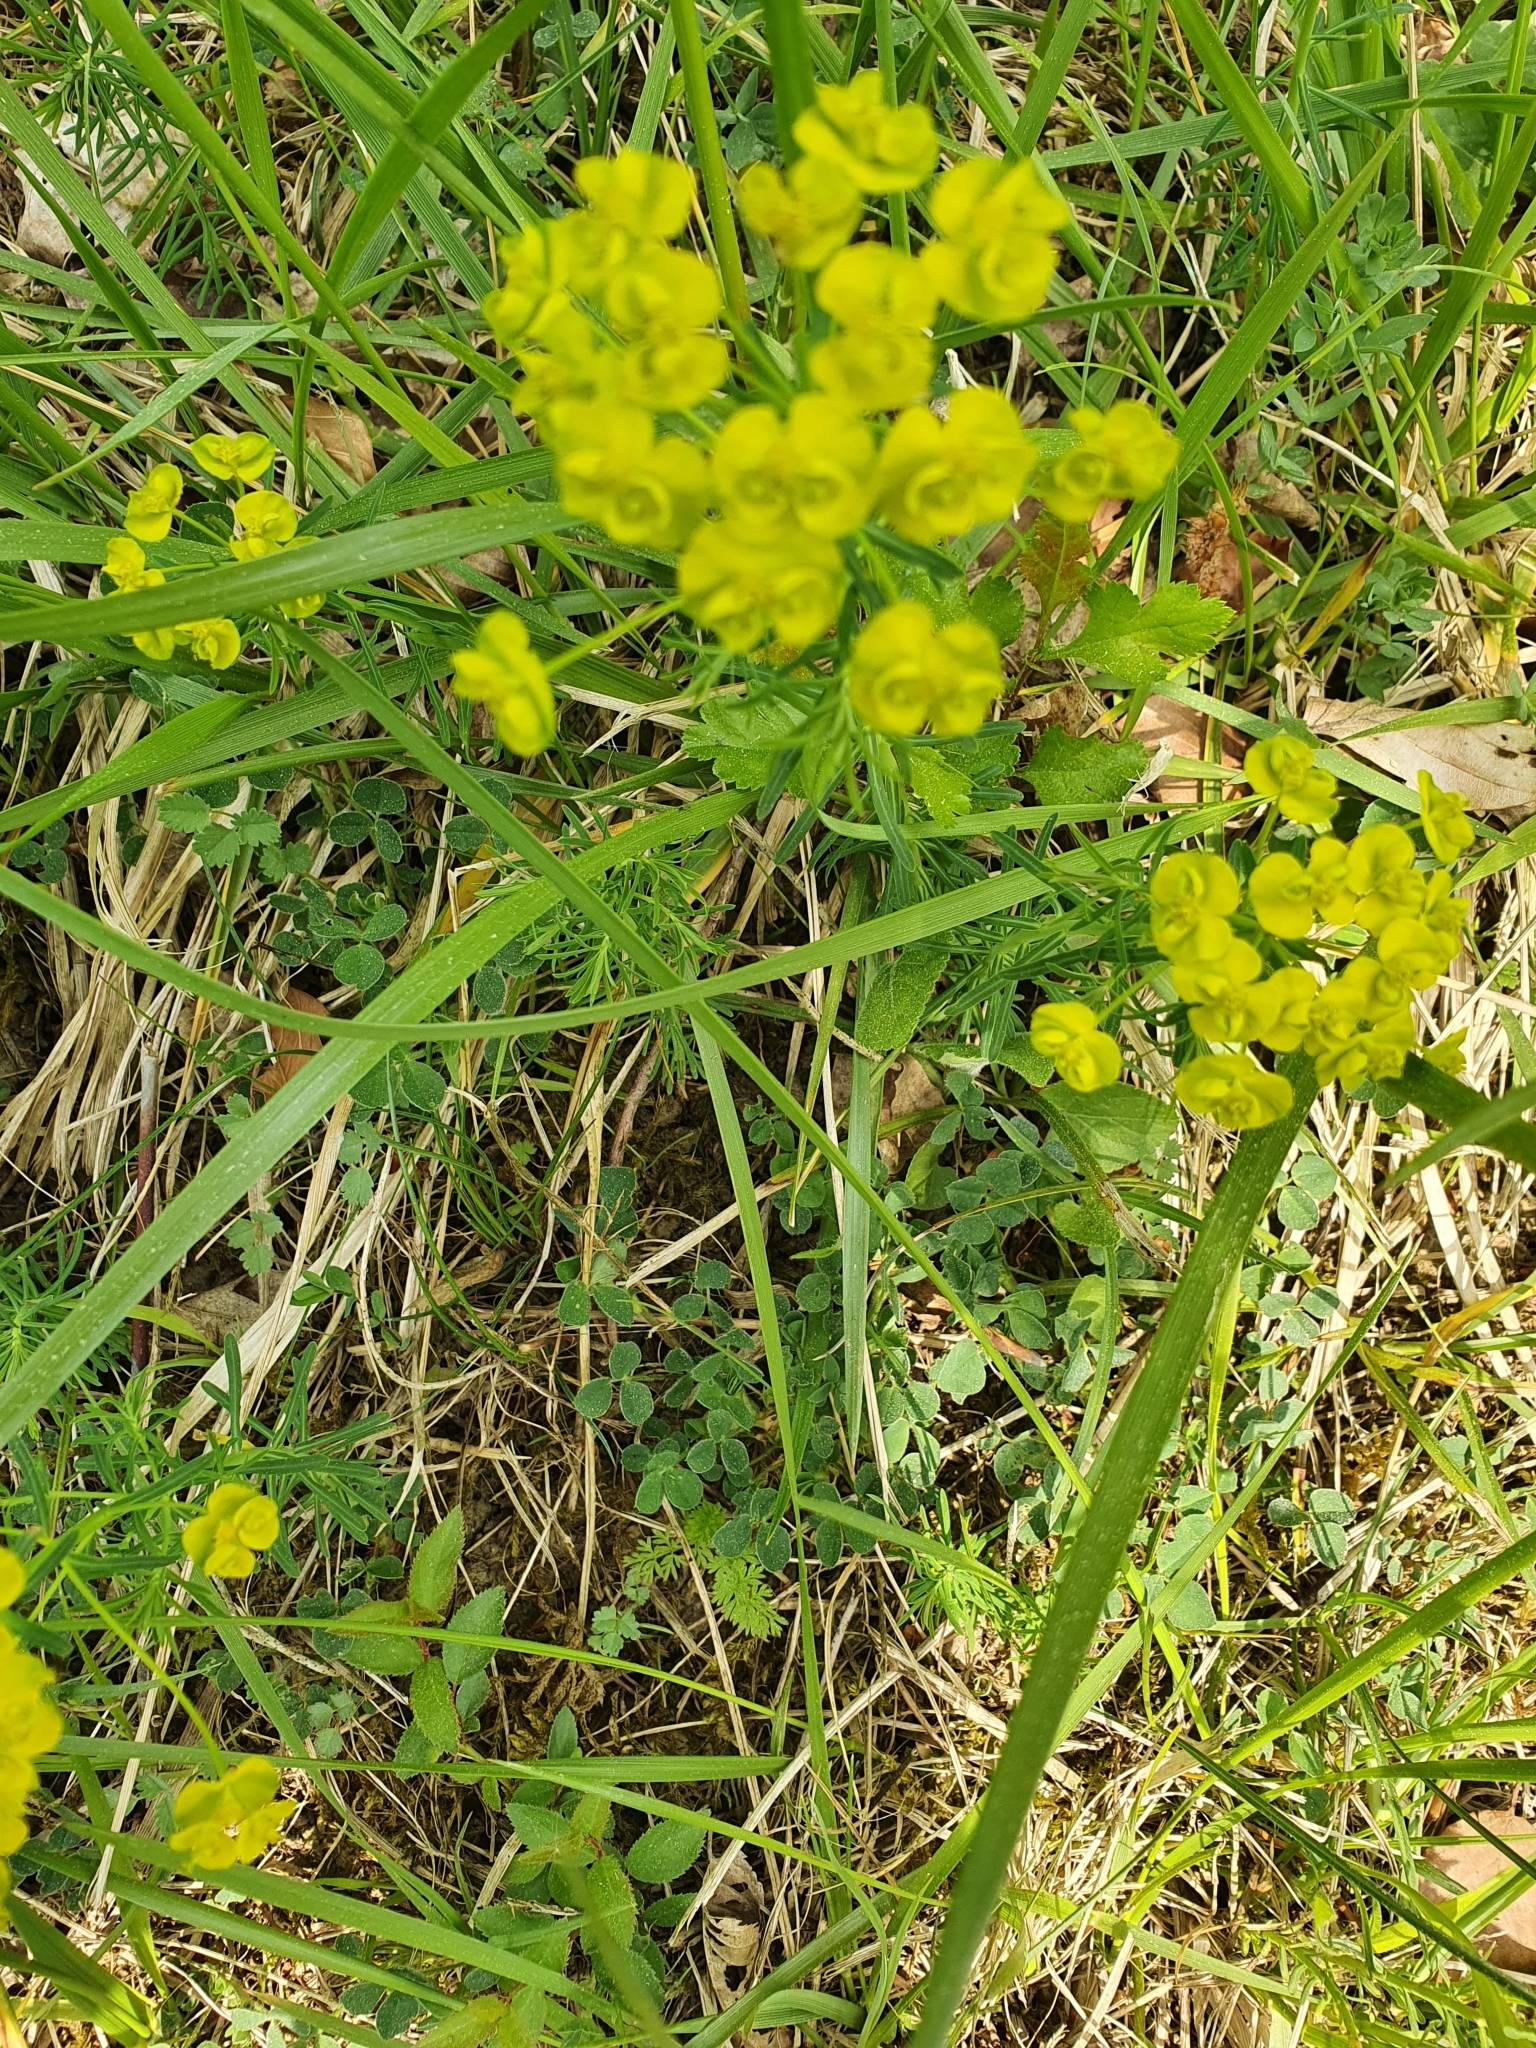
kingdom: Plantae
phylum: Tracheophyta
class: Magnoliopsida
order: Malpighiales
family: Euphorbiaceae
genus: Euphorbia
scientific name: Euphorbia cyparissias
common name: Cypress spurge
